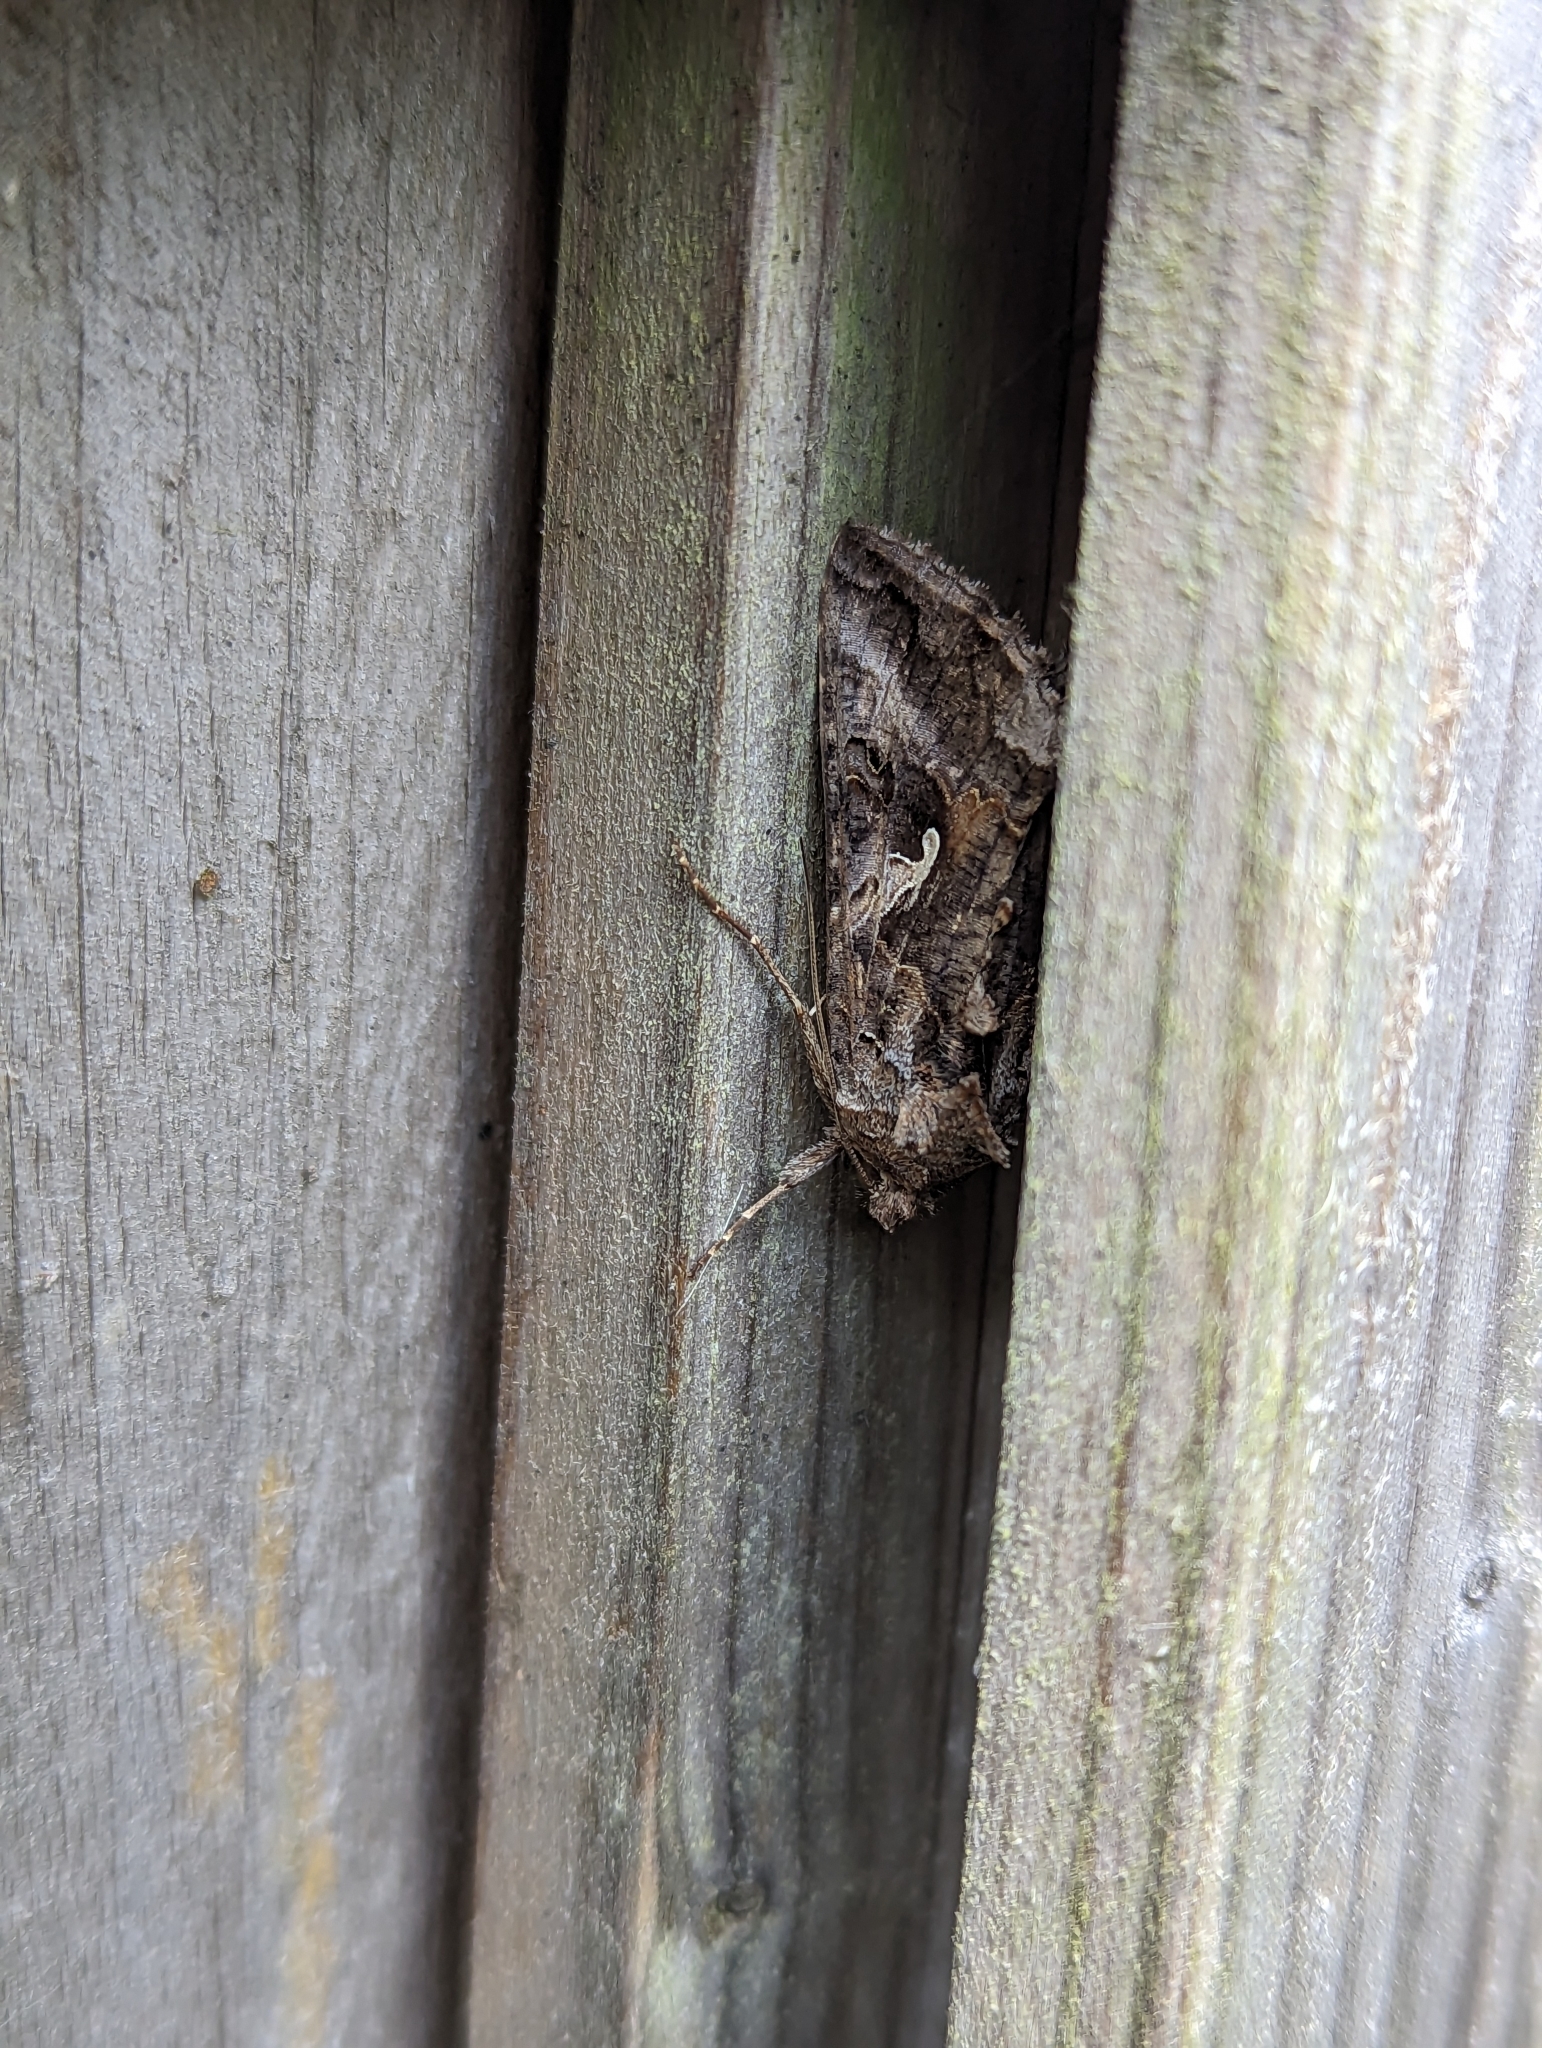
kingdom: Animalia
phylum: Arthropoda
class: Insecta
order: Lepidoptera
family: Noctuidae
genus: Autographa
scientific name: Autographa gamma
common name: Silver y
